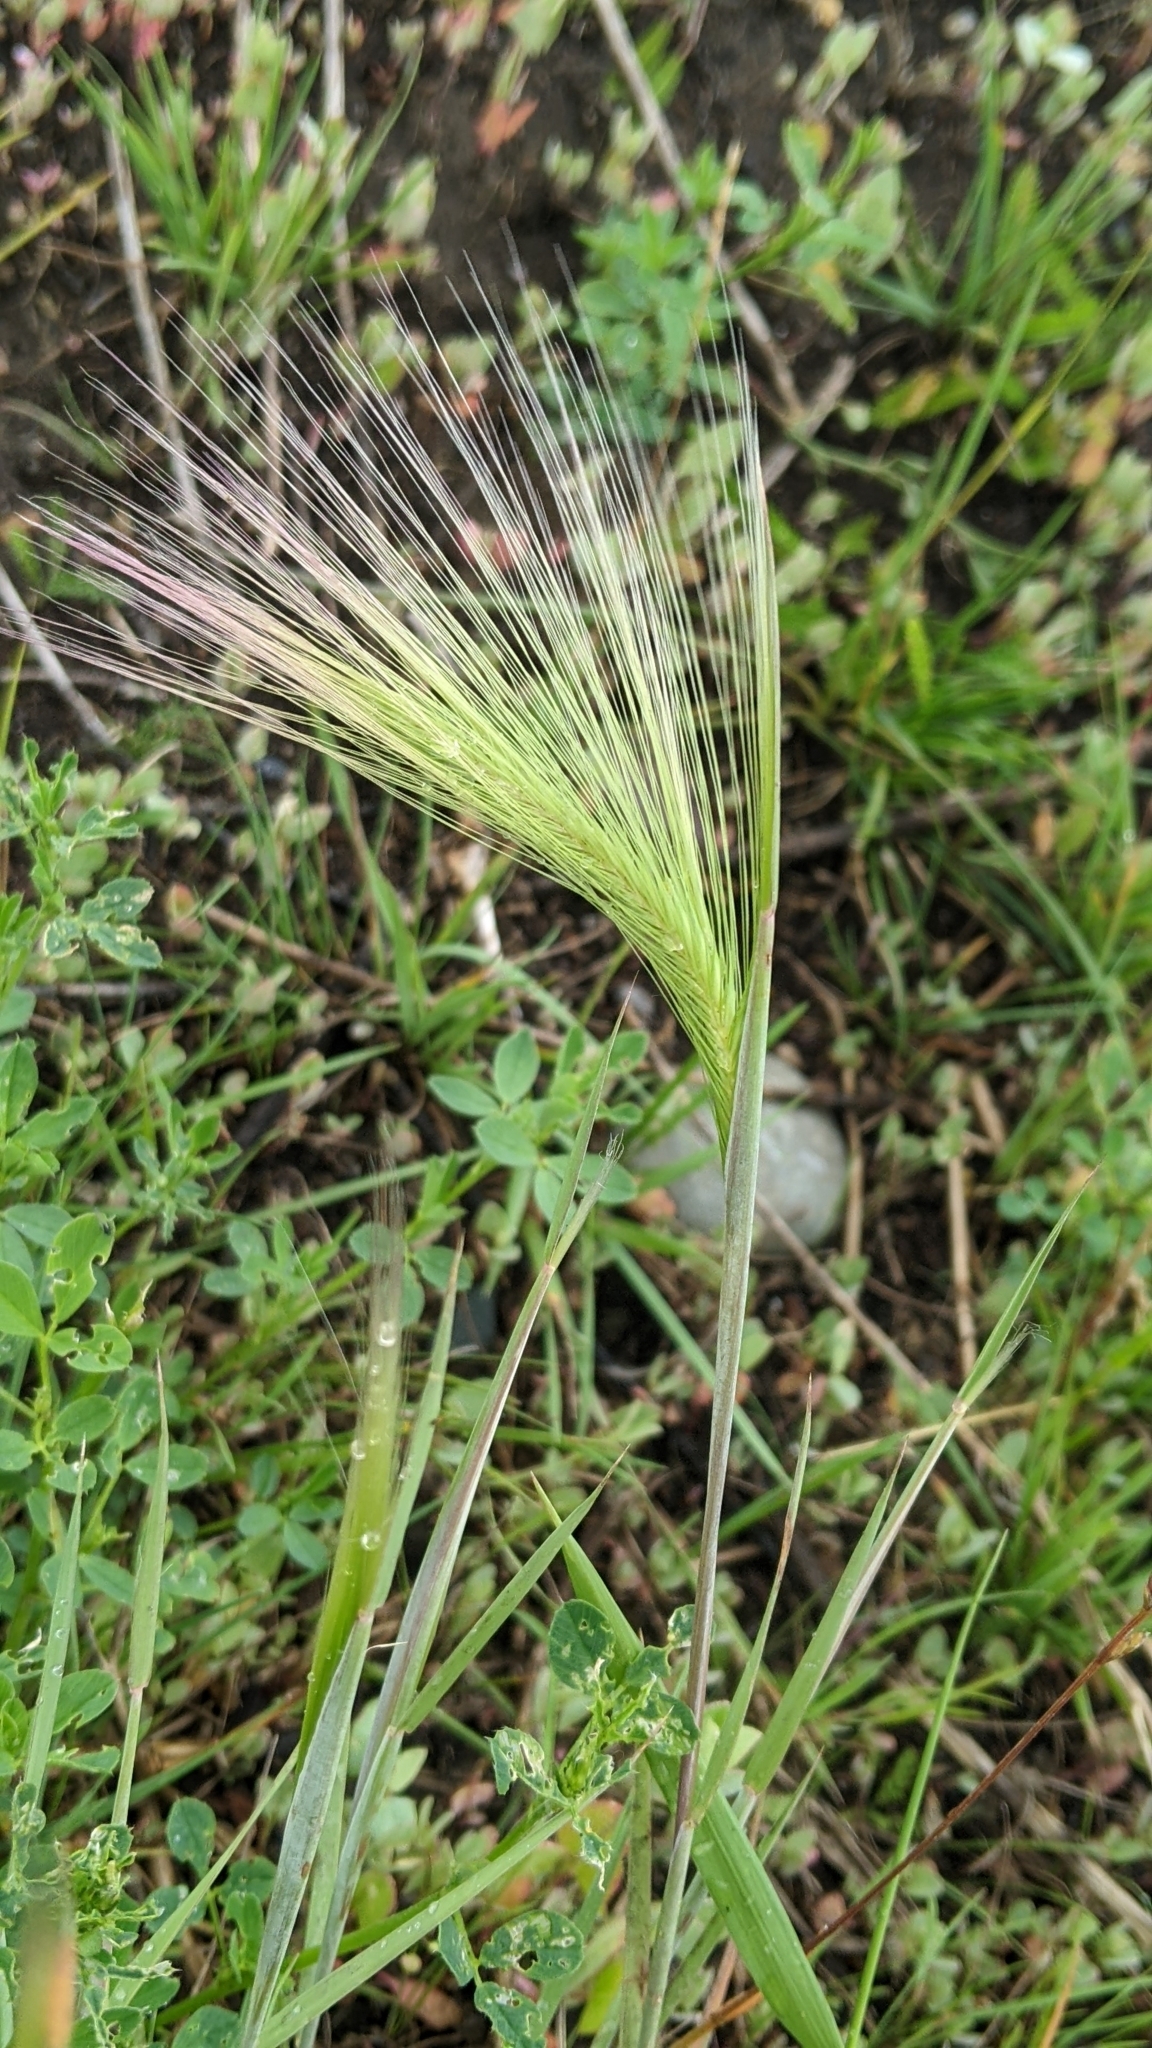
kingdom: Plantae
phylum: Tracheophyta
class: Liliopsida
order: Poales
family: Poaceae
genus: Hordeum
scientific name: Hordeum jubatum
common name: Foxtail barley
